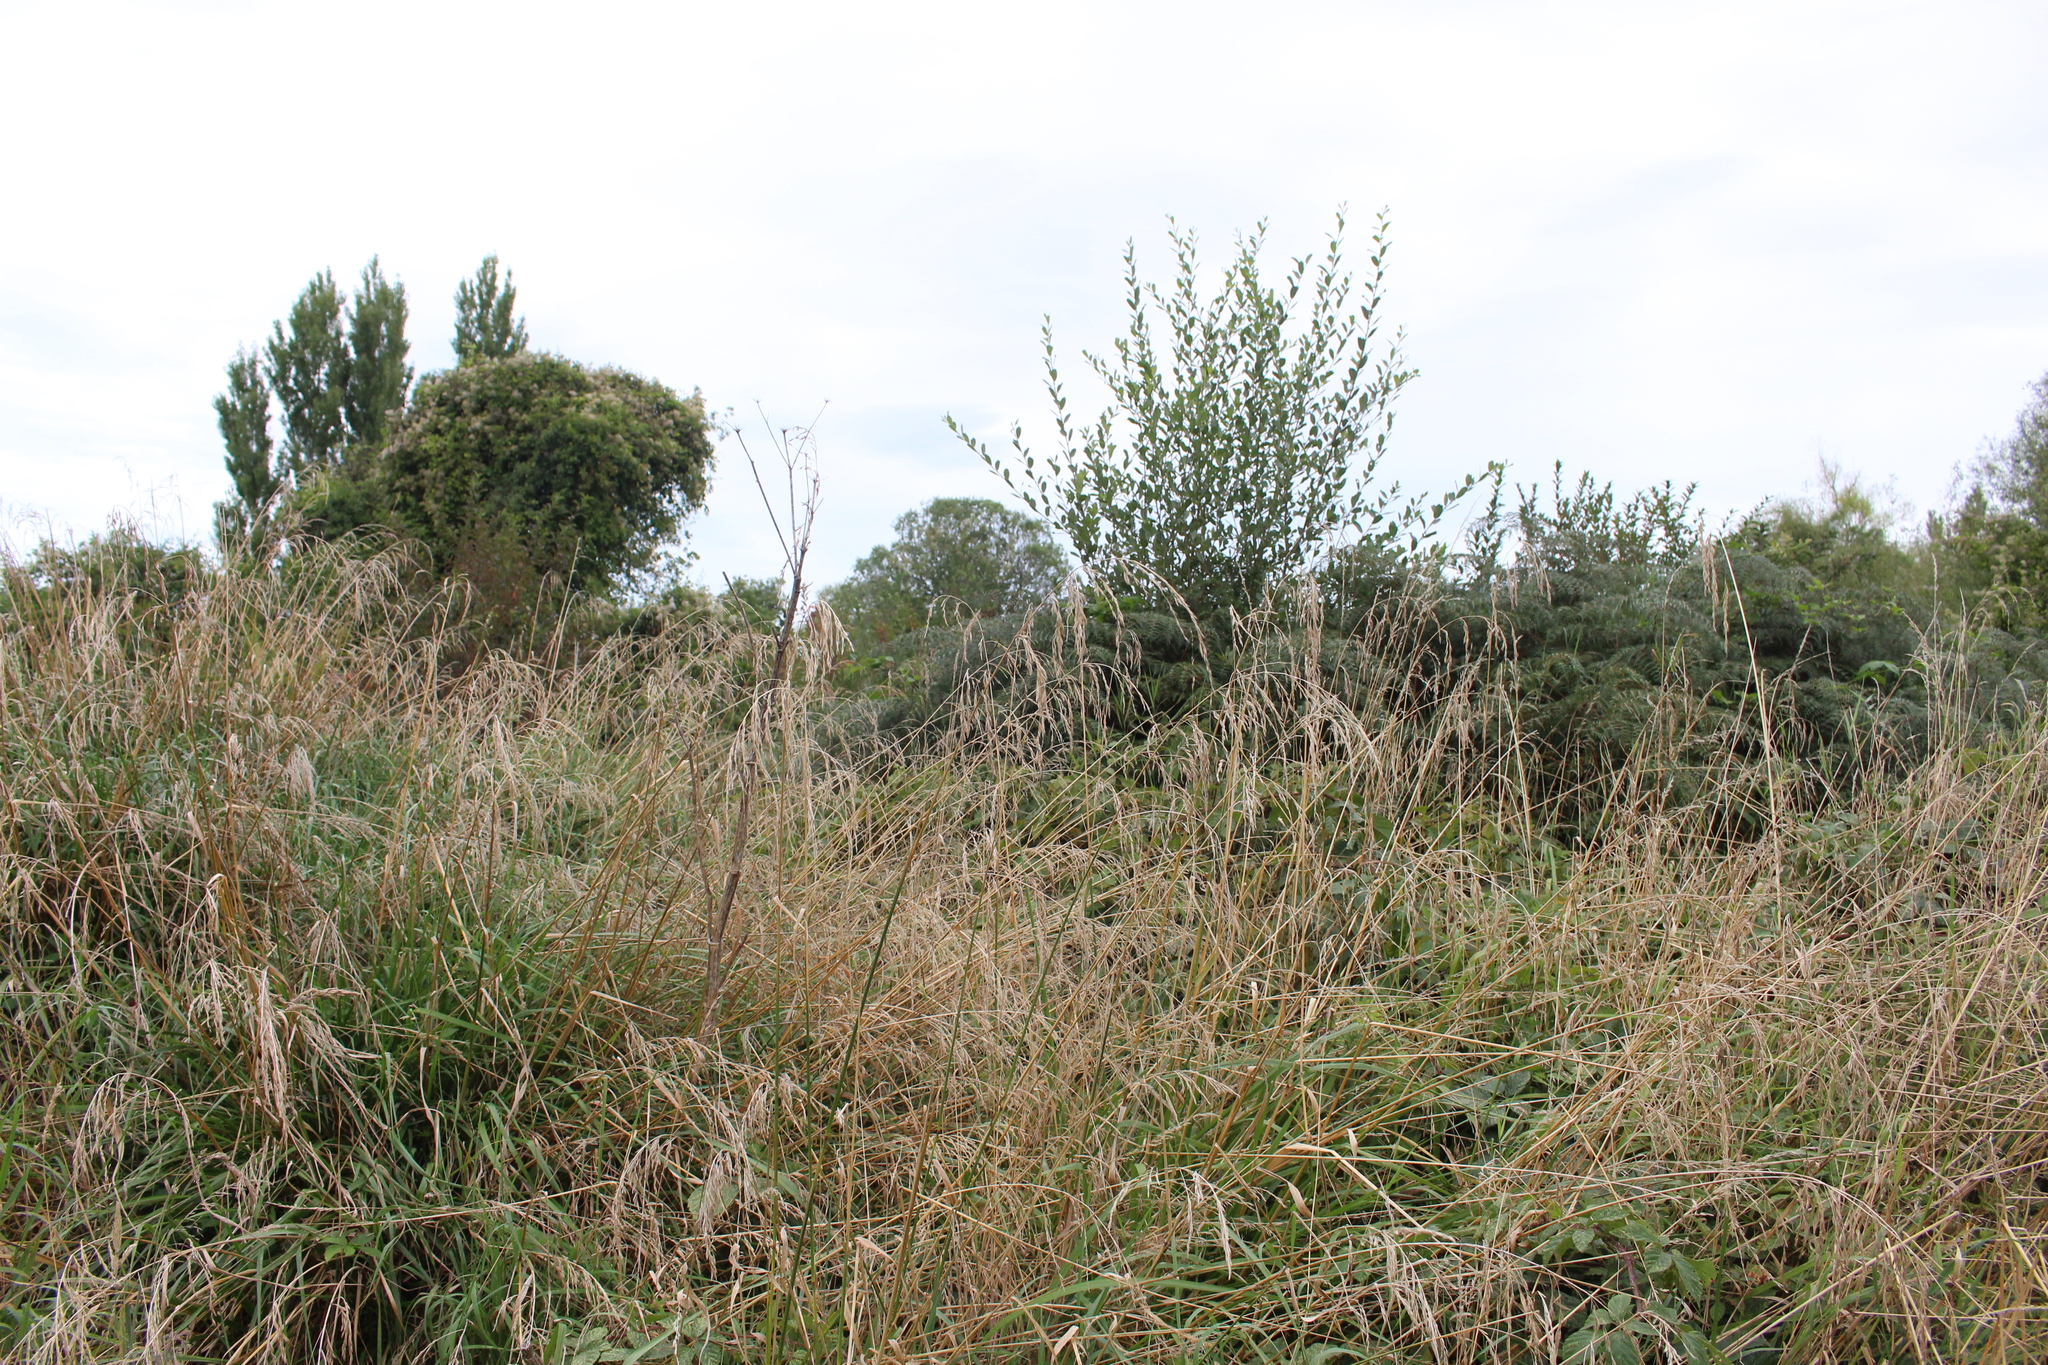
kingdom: Plantae
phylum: Tracheophyta
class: Liliopsida
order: Poales
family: Poaceae
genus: Lolium
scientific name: Lolium arundinaceum
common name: Reed fescue
